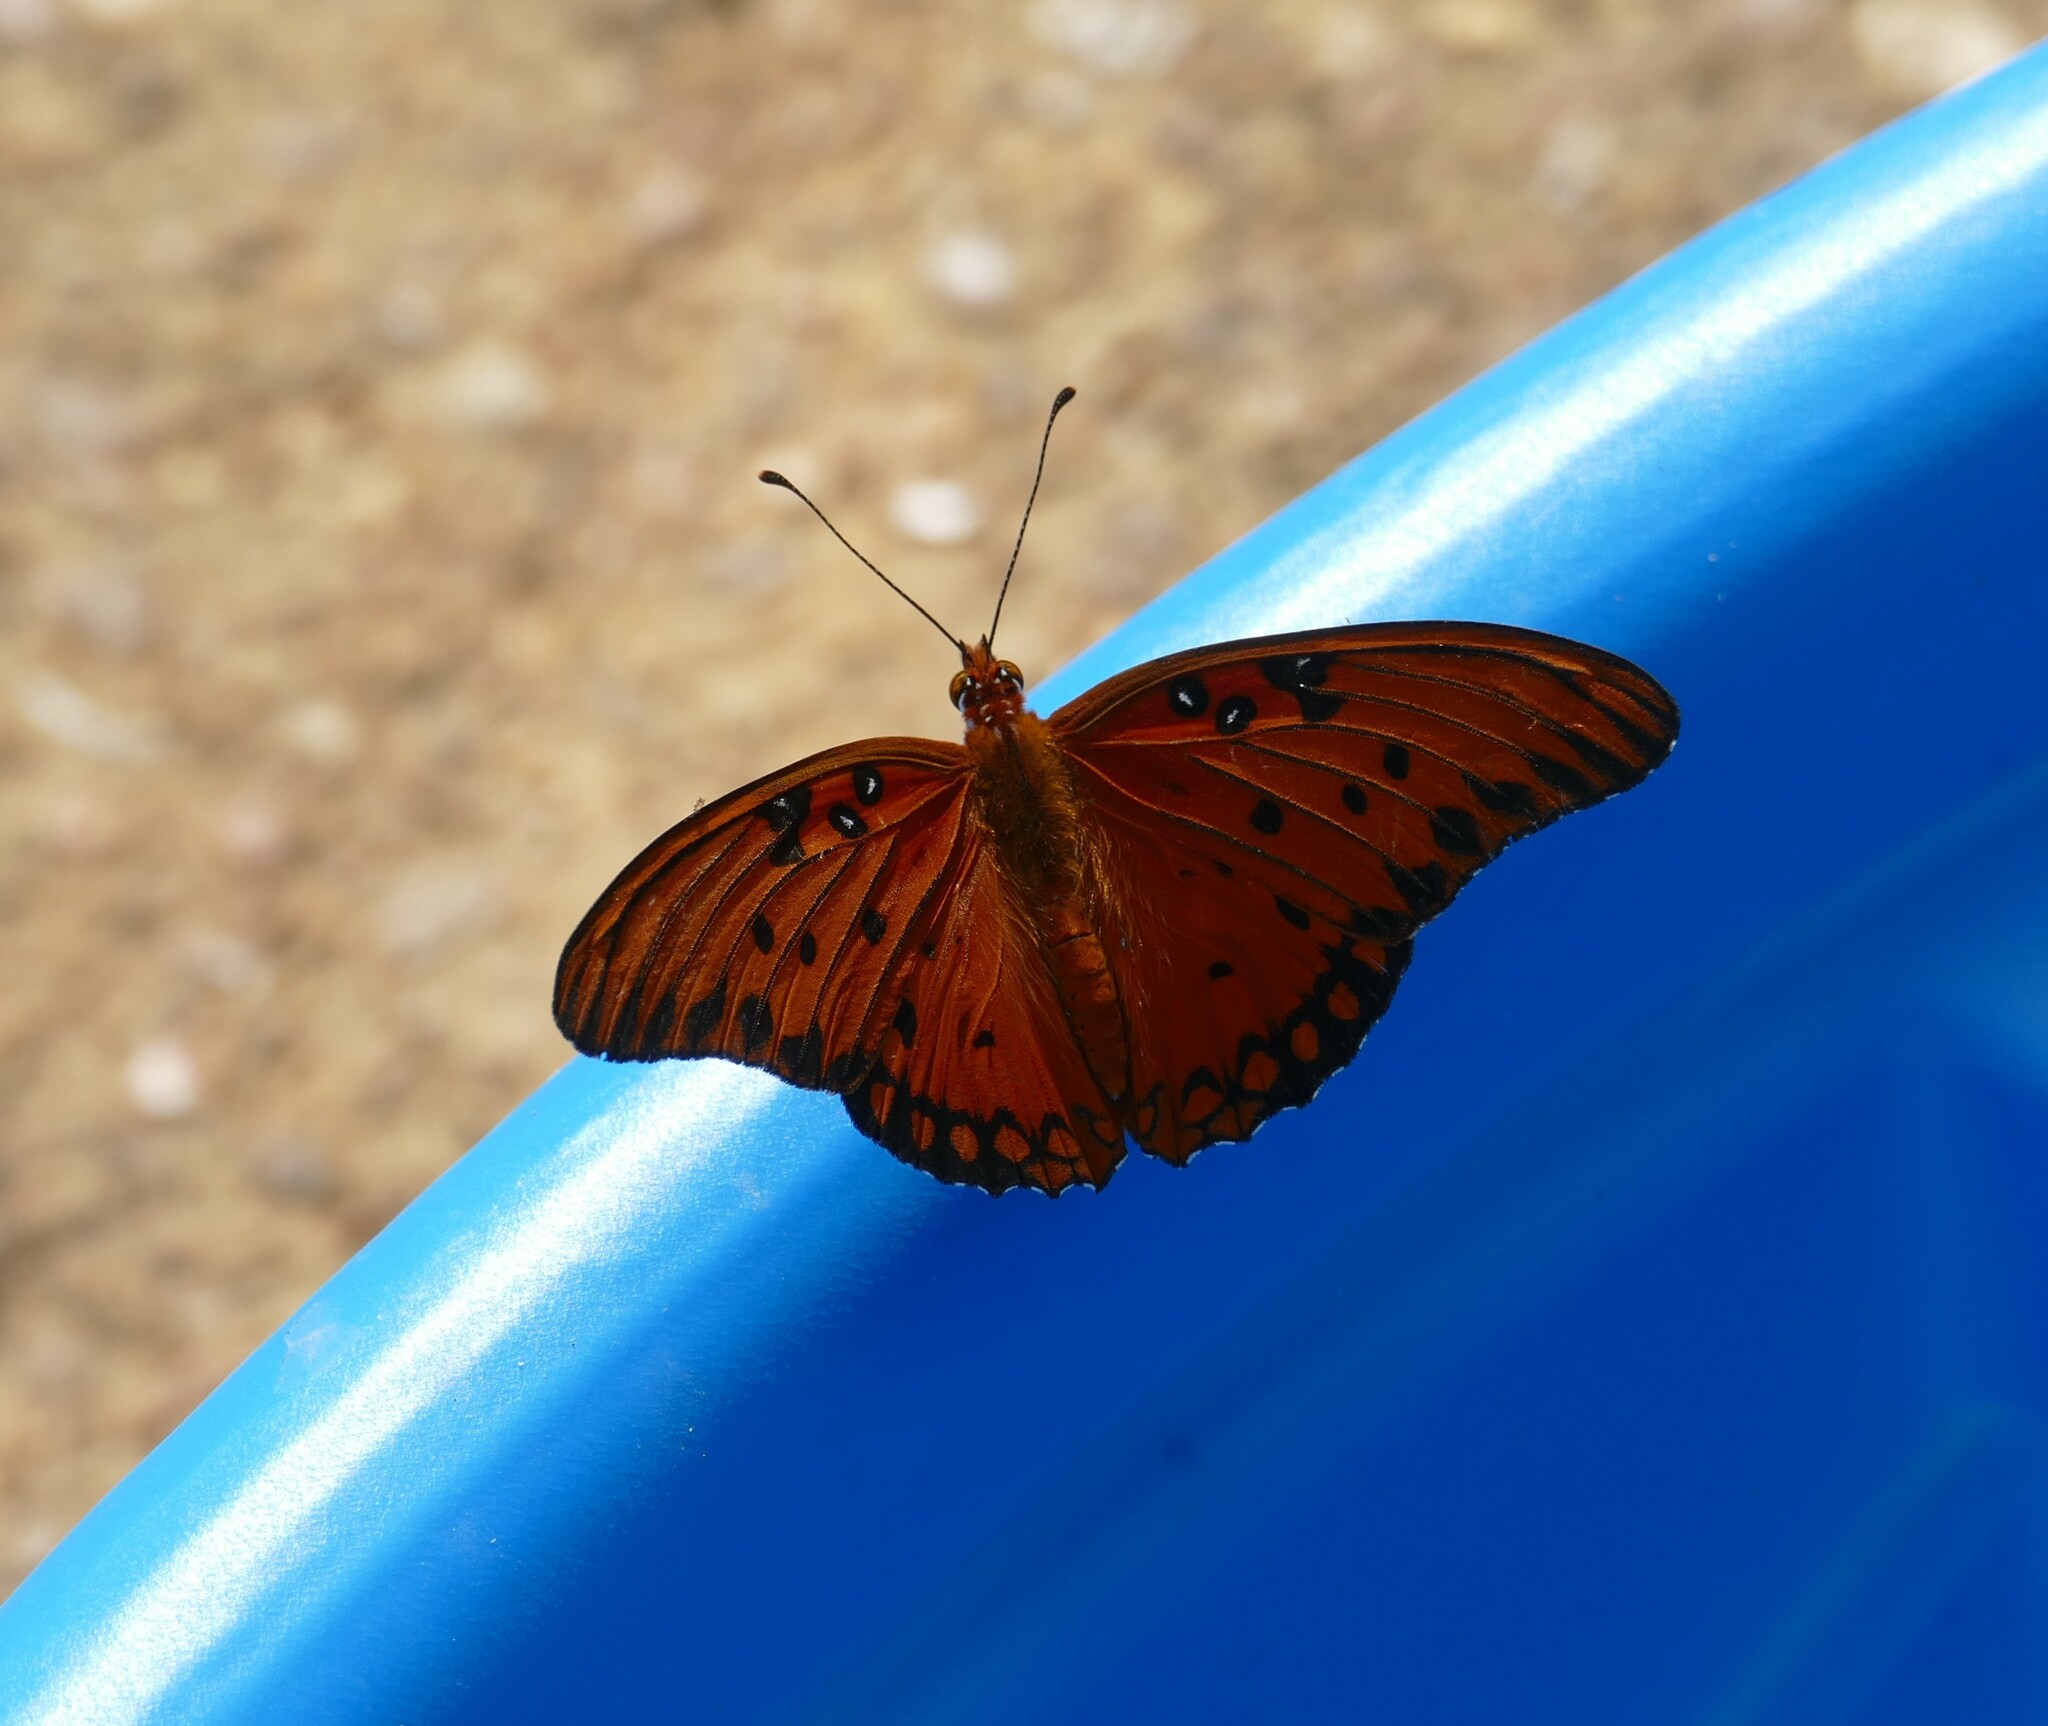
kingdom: Animalia
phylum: Arthropoda
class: Insecta
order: Lepidoptera
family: Nymphalidae
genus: Dione
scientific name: Dione vanillae
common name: Gulf fritillary
